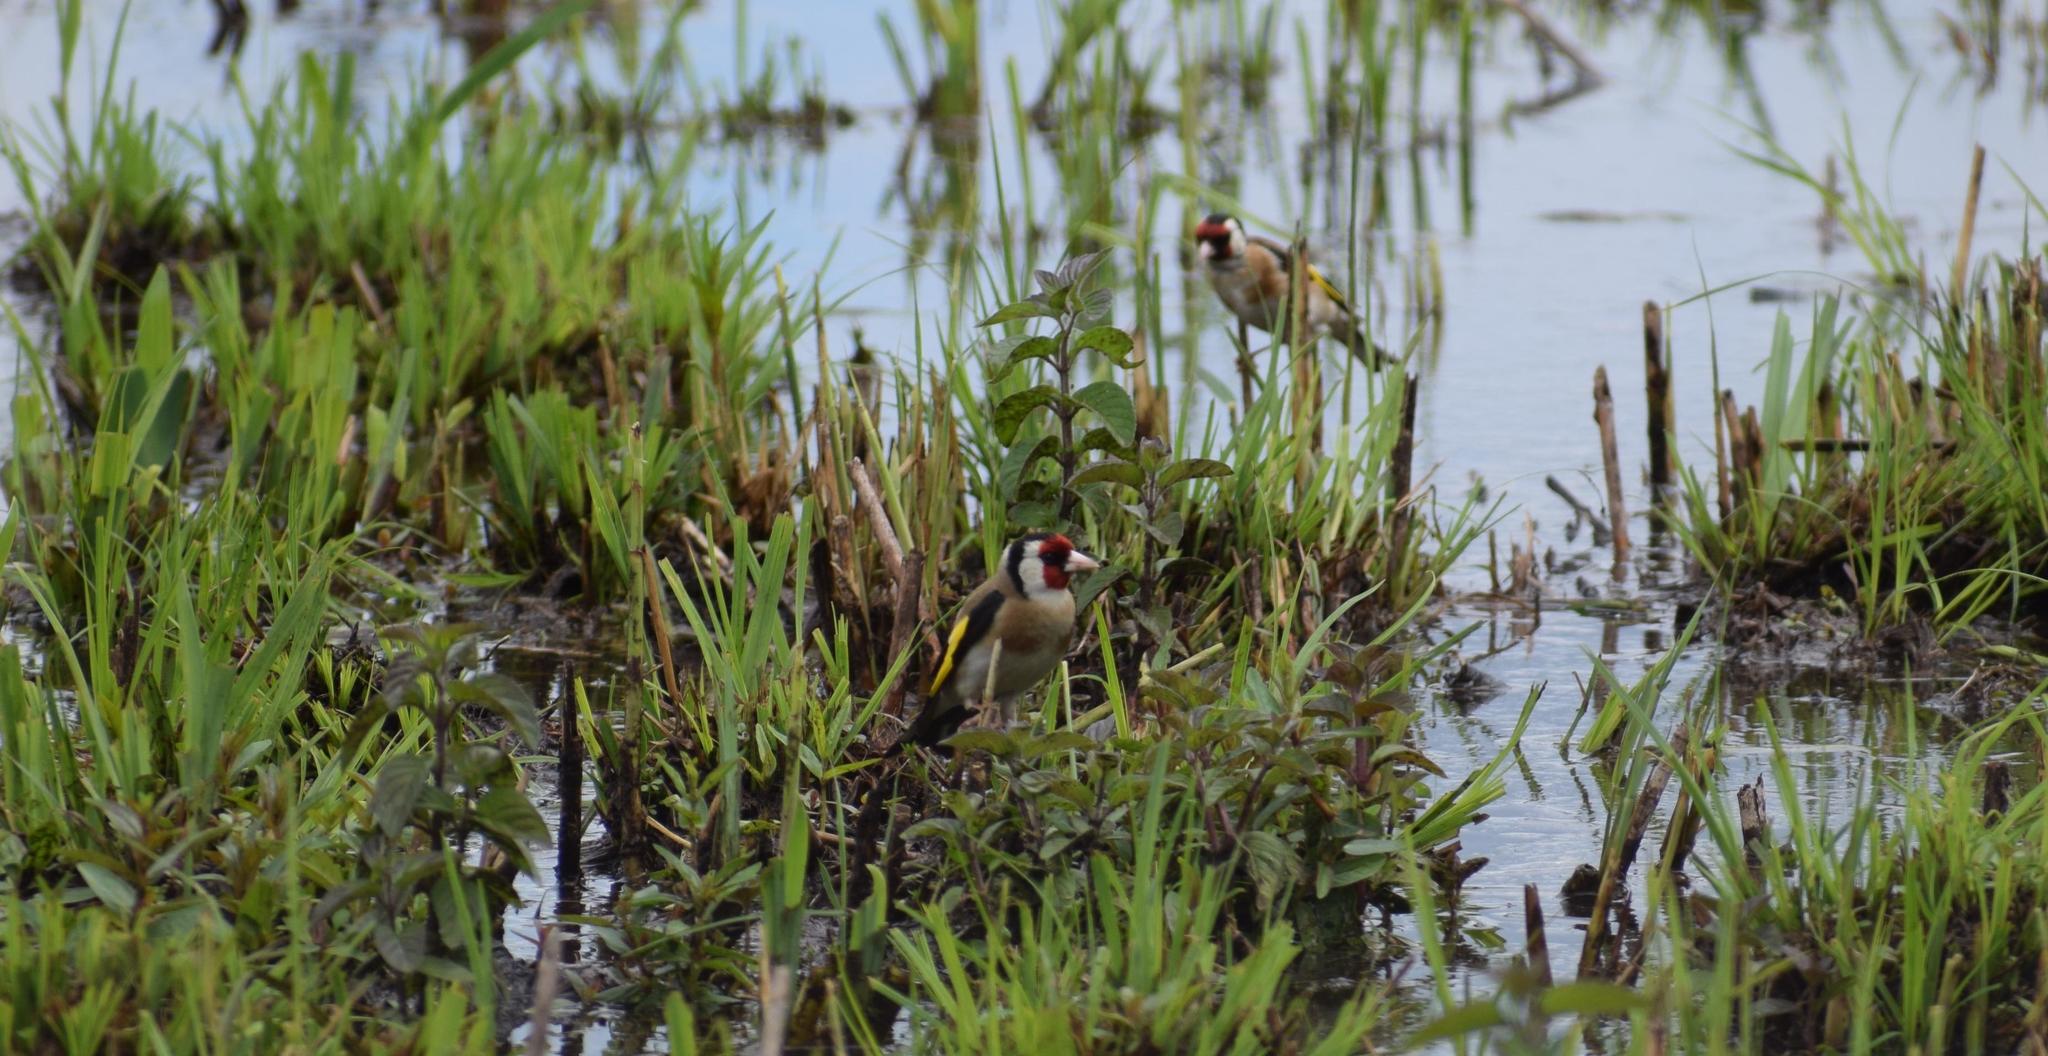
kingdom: Animalia
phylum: Chordata
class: Aves
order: Passeriformes
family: Fringillidae
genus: Carduelis
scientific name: Carduelis carduelis
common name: European goldfinch
